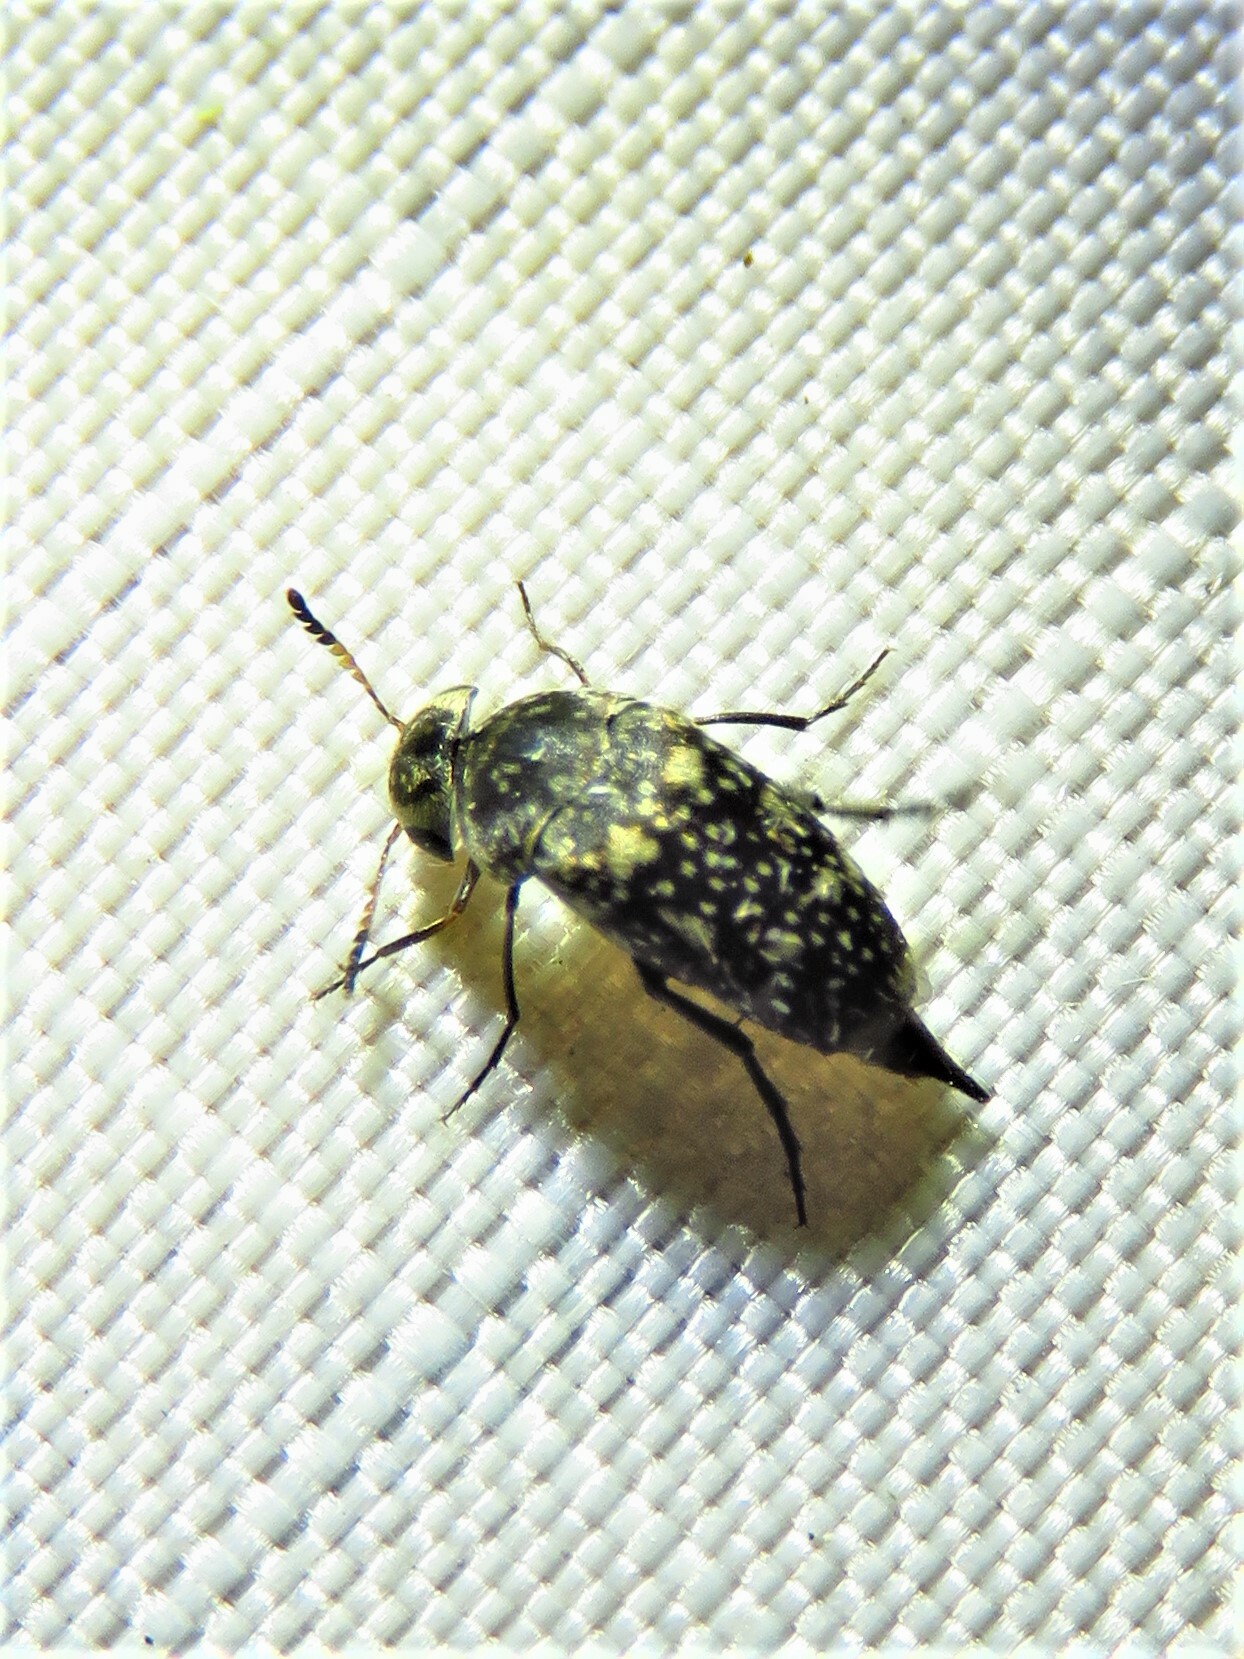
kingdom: Animalia
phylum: Arthropoda
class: Insecta
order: Coleoptera
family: Mordellidae
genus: Mordellaria
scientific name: Mordellaria serval
